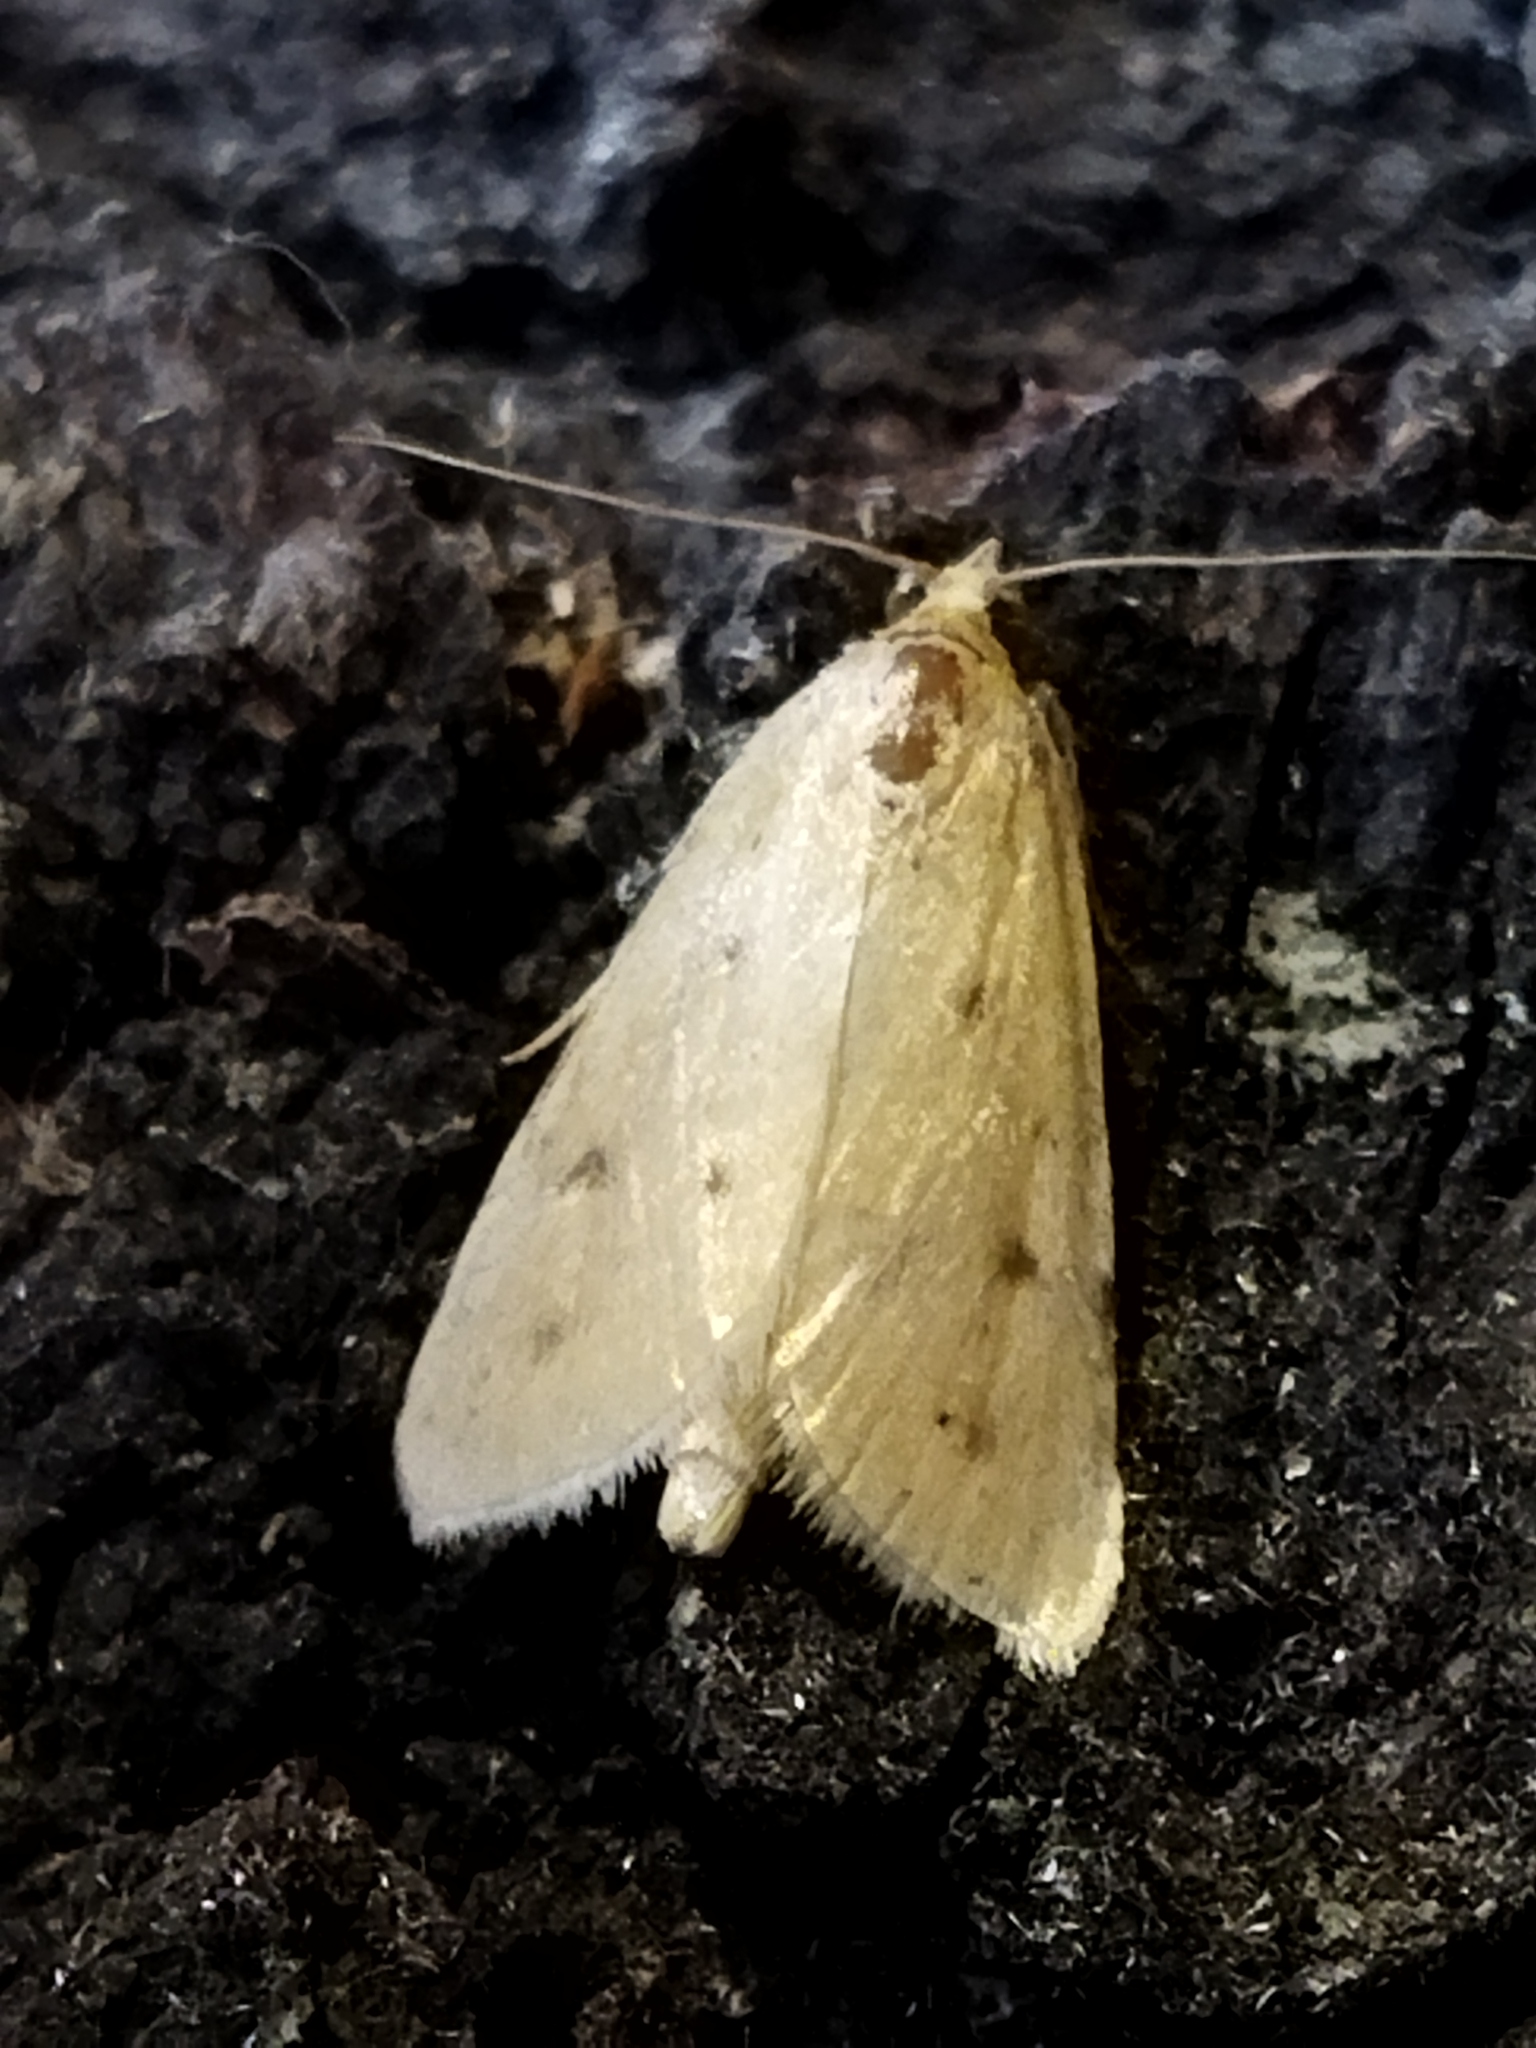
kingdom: Animalia
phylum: Arthropoda
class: Insecta
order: Lepidoptera
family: Crambidae
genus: Achyra
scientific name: Achyra nudalis
